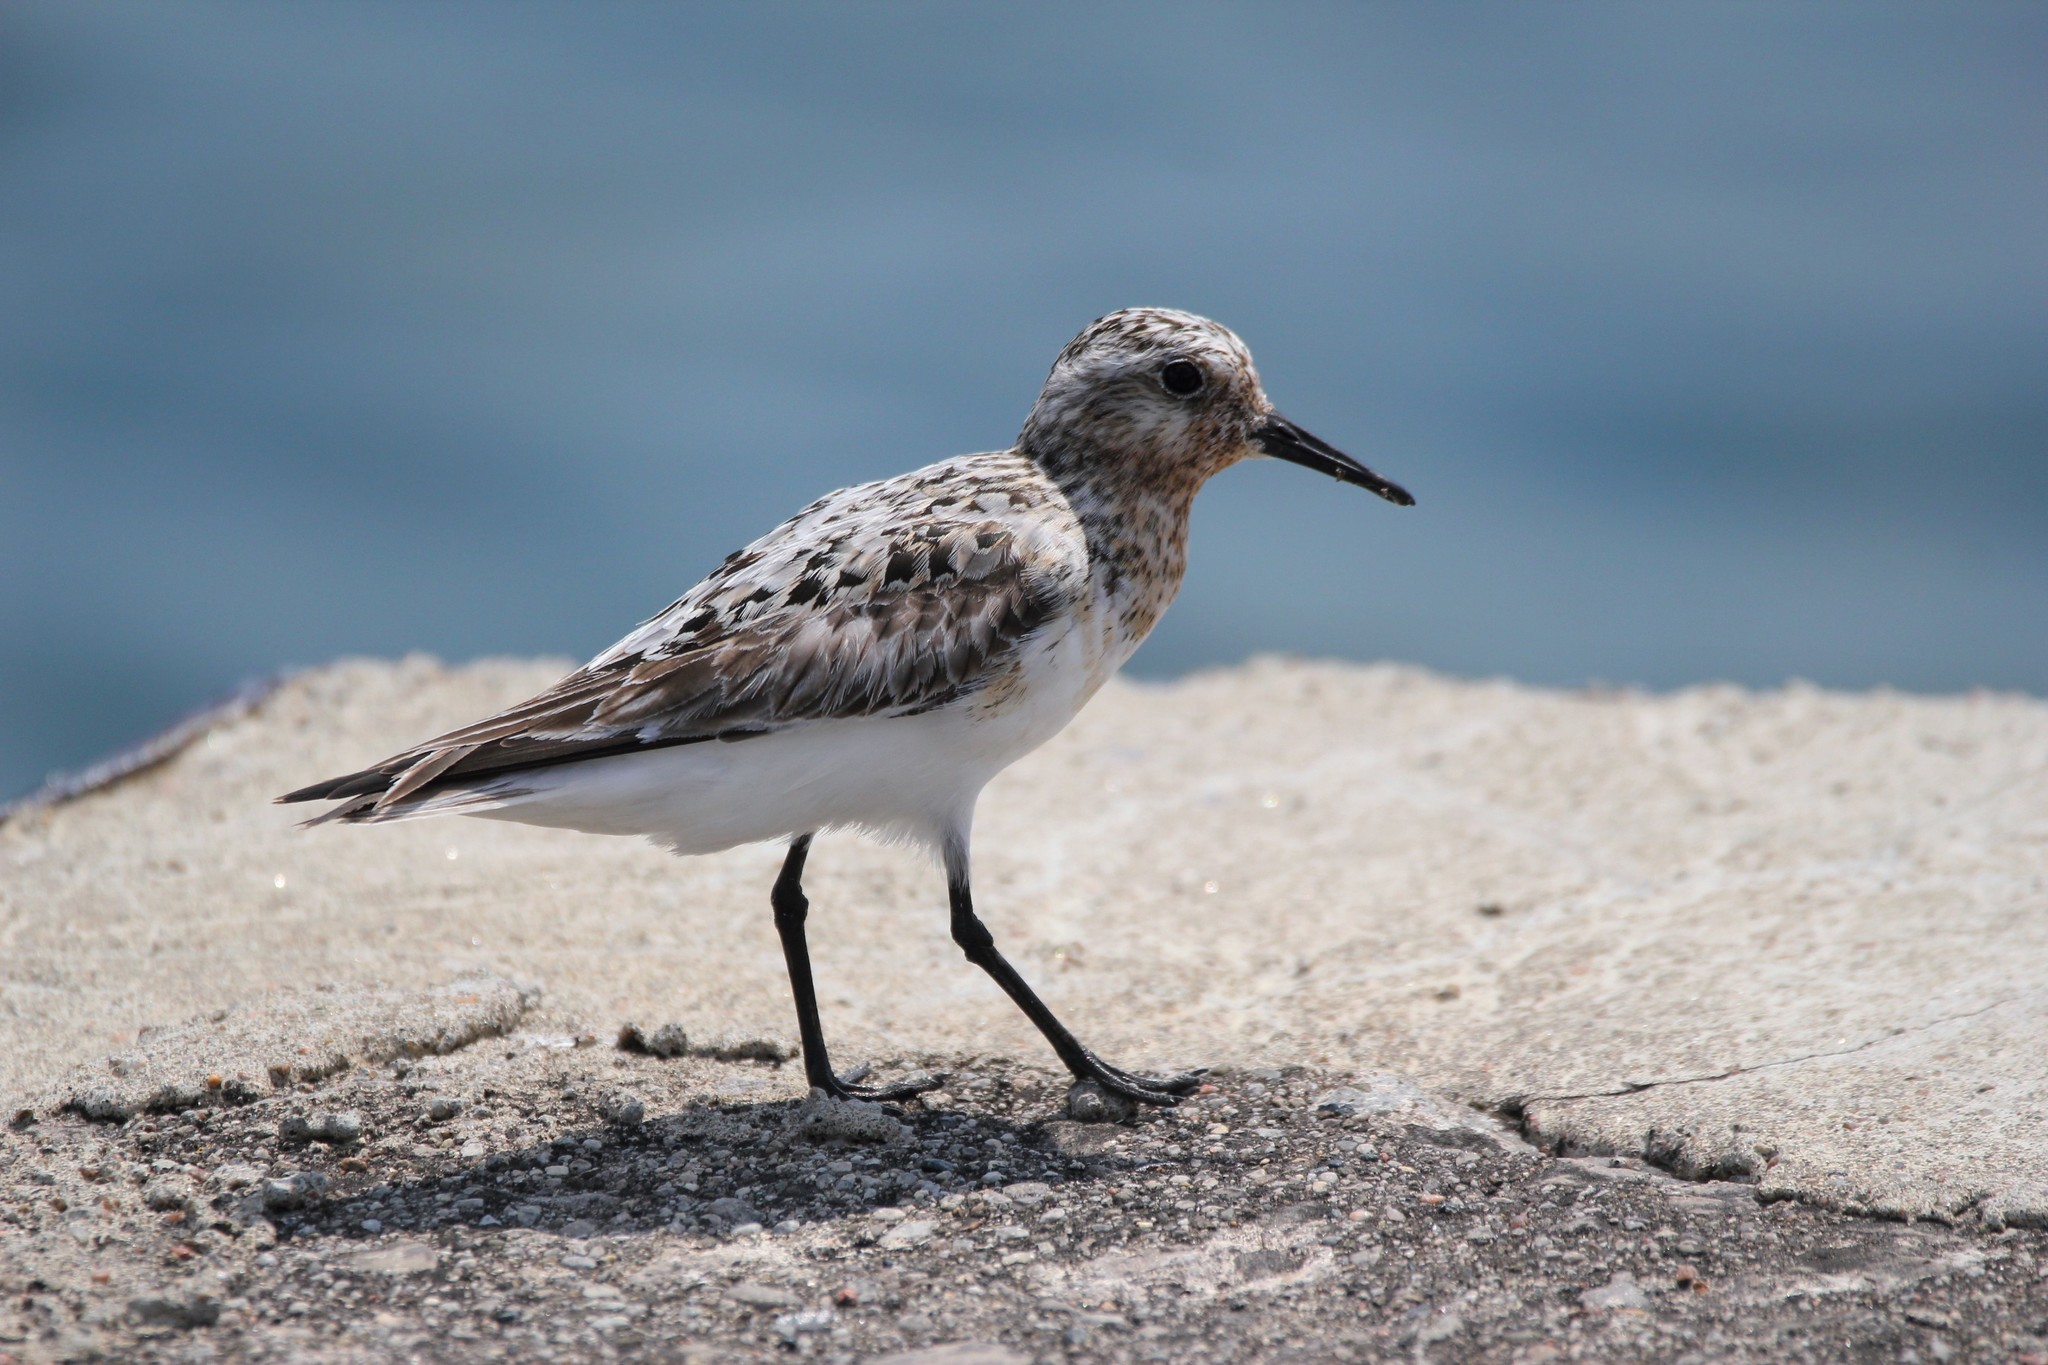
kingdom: Animalia
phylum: Chordata
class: Aves
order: Charadriiformes
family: Scolopacidae
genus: Calidris
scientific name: Calidris alba
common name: Sanderling
